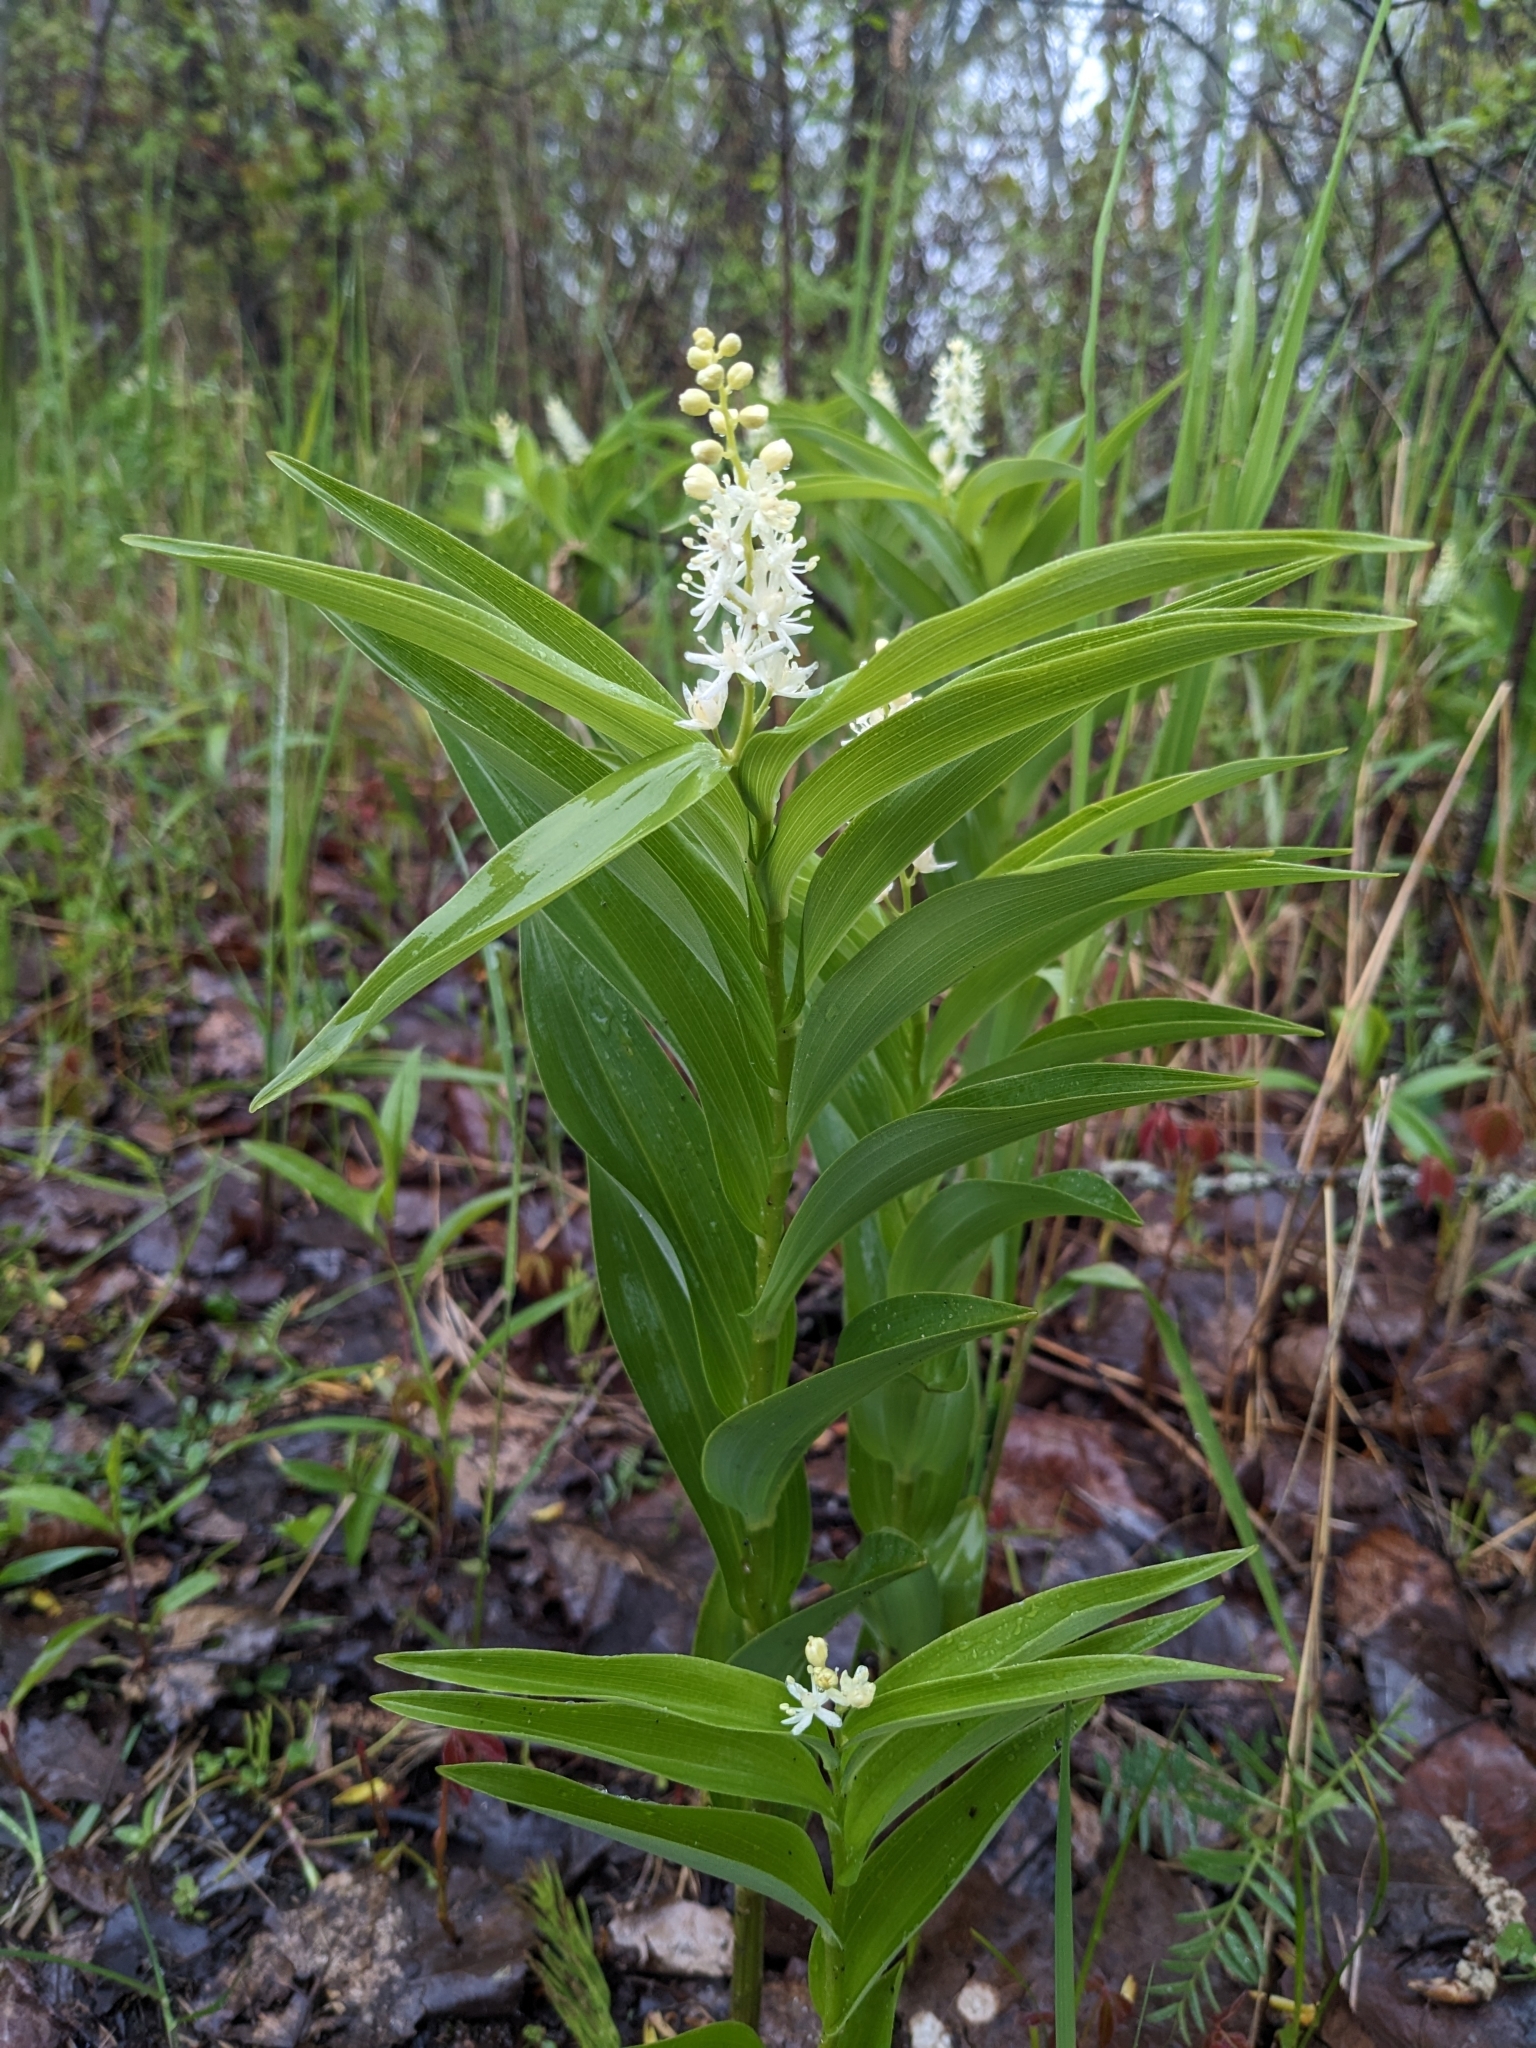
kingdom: Plantae
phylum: Tracheophyta
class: Liliopsida
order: Asparagales
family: Asparagaceae
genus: Maianthemum
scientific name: Maianthemum stellatum
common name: Little false solomon's seal
